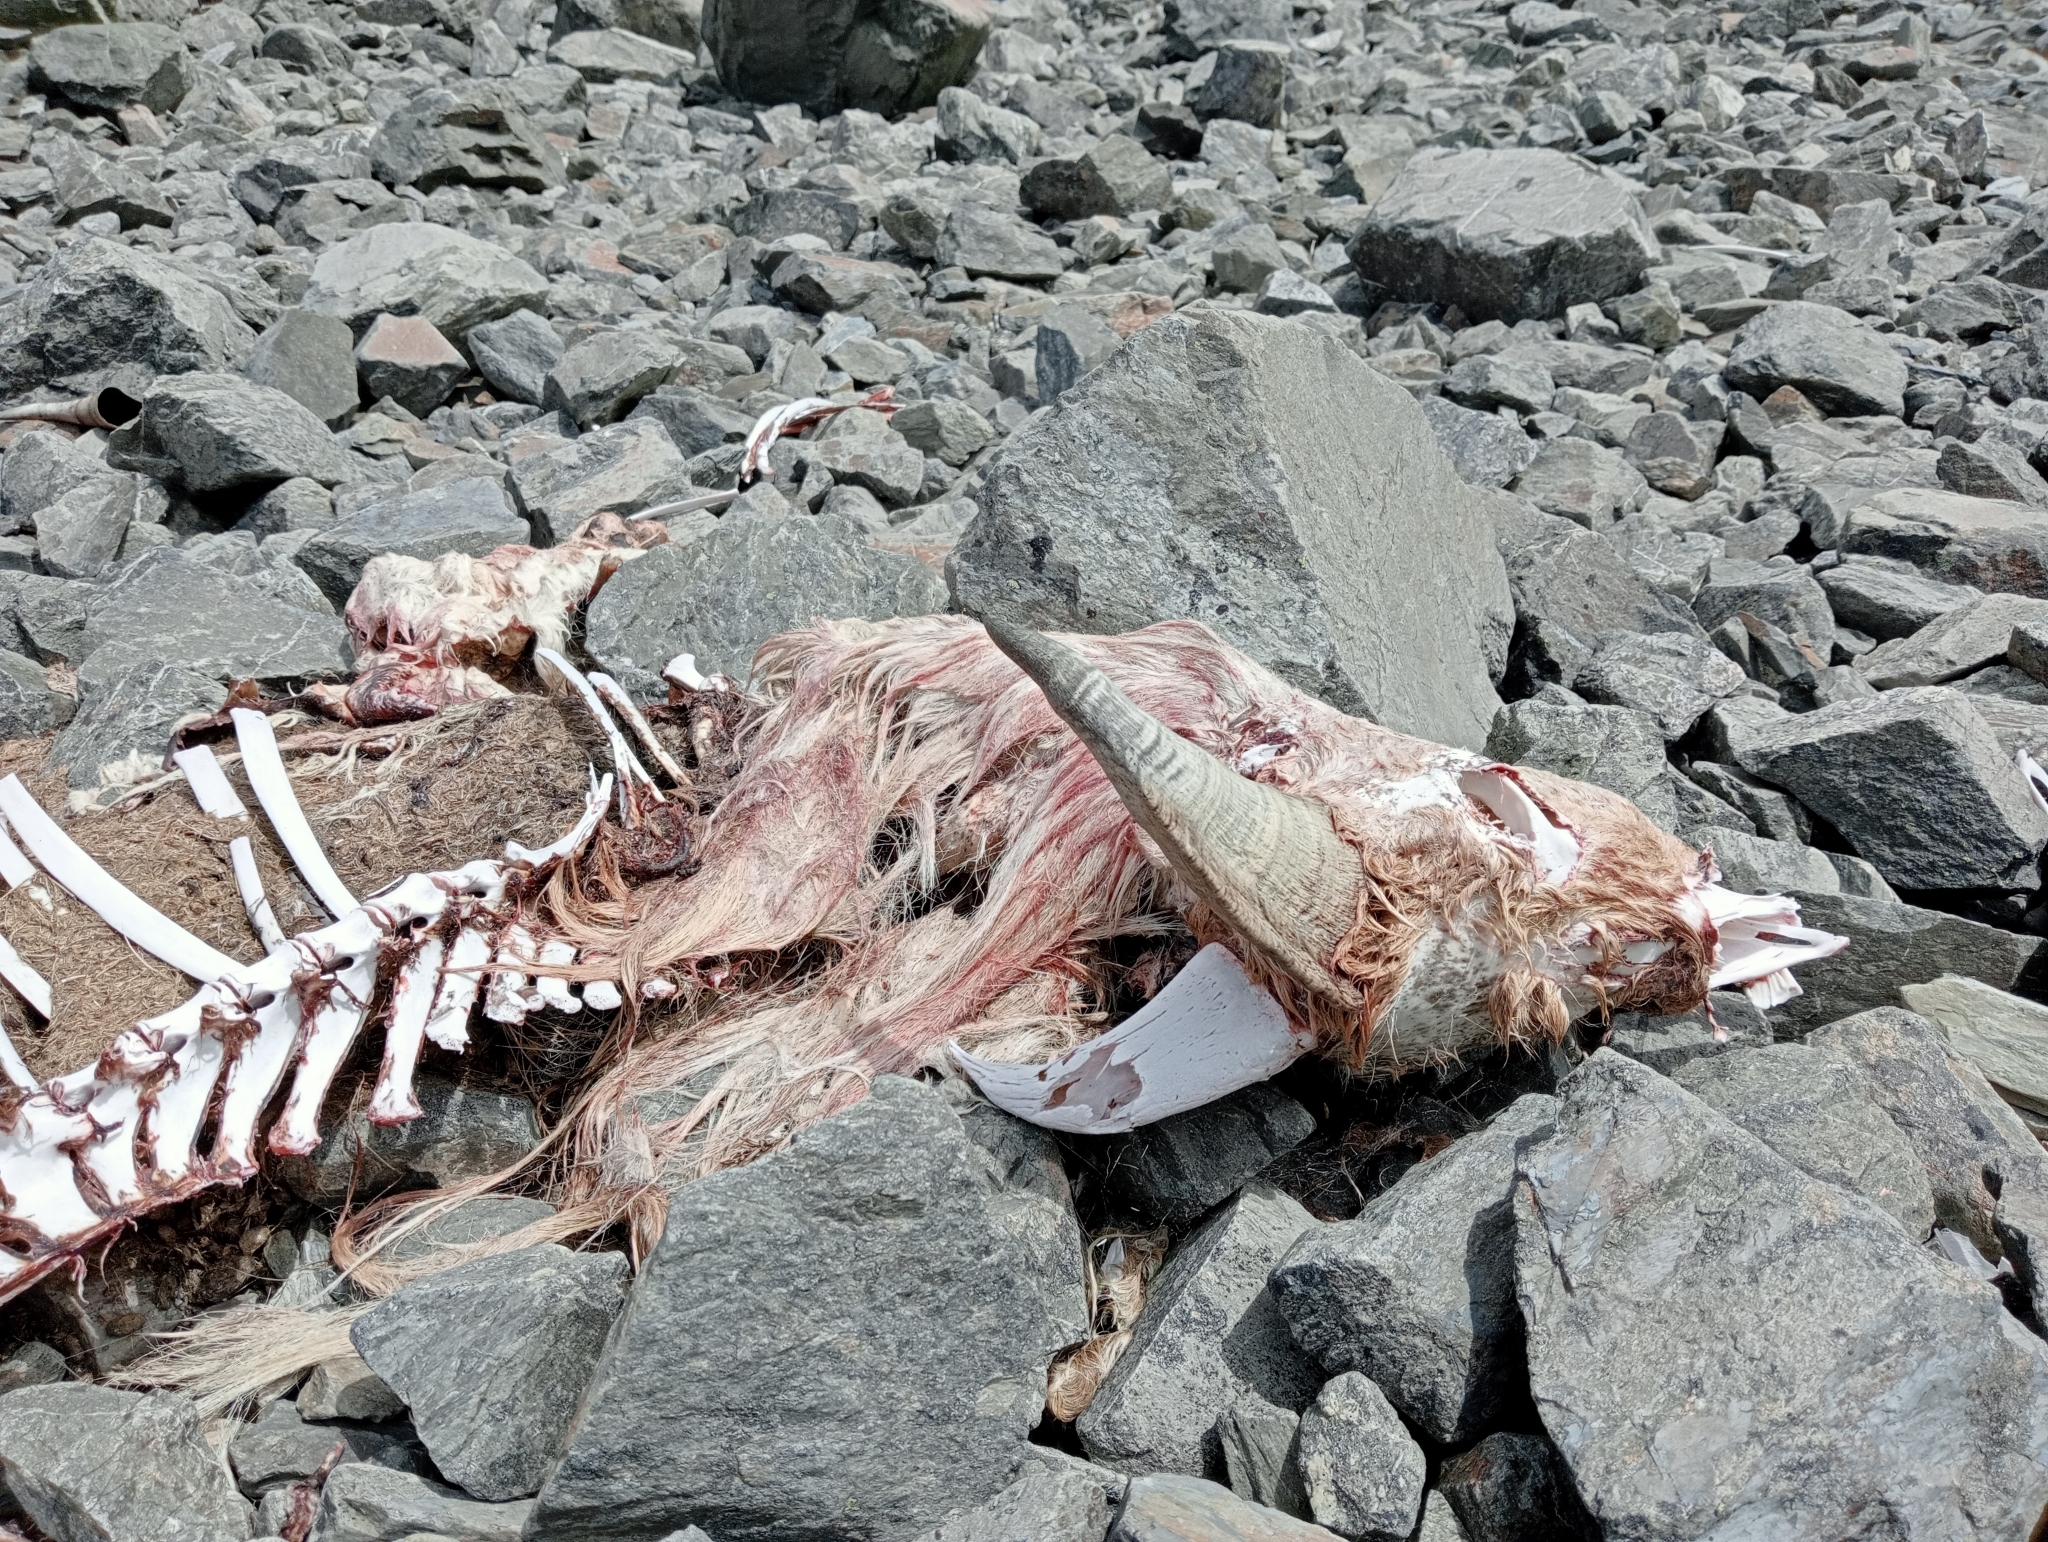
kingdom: Animalia
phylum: Chordata
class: Mammalia
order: Artiodactyla
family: Bovidae
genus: Hemitragus
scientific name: Hemitragus jemlahicus
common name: Himalayan tahr
